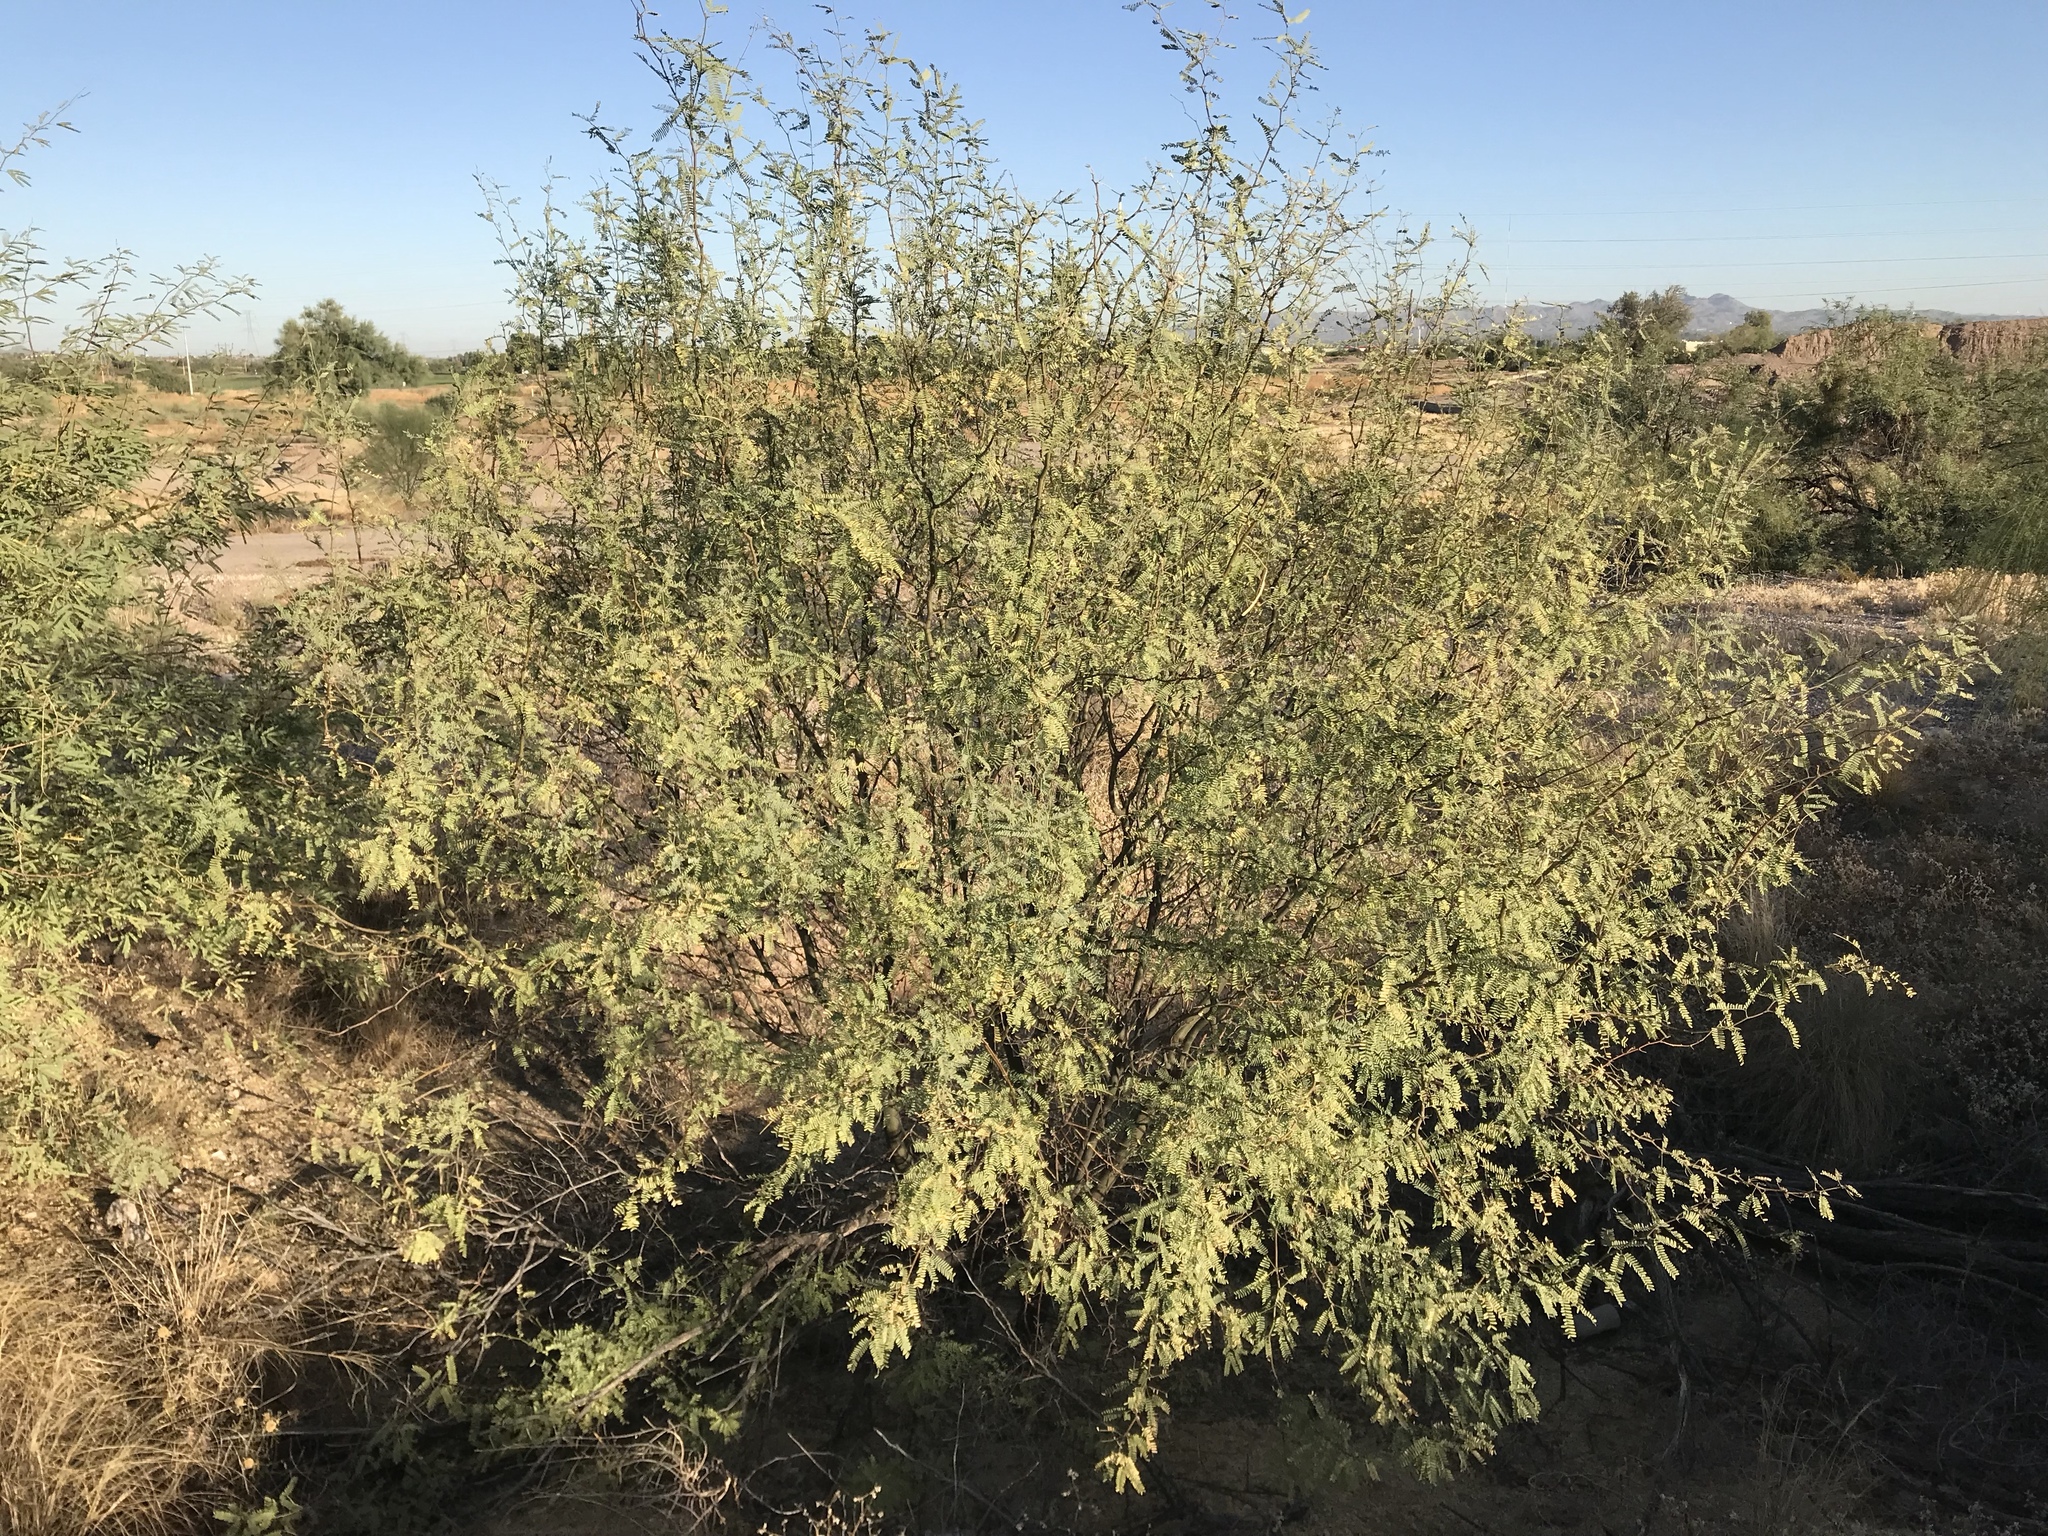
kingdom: Plantae
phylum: Tracheophyta
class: Magnoliopsida
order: Fabales
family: Fabaceae
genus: Prosopis
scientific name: Prosopis velutina
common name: Velvet mesquite
